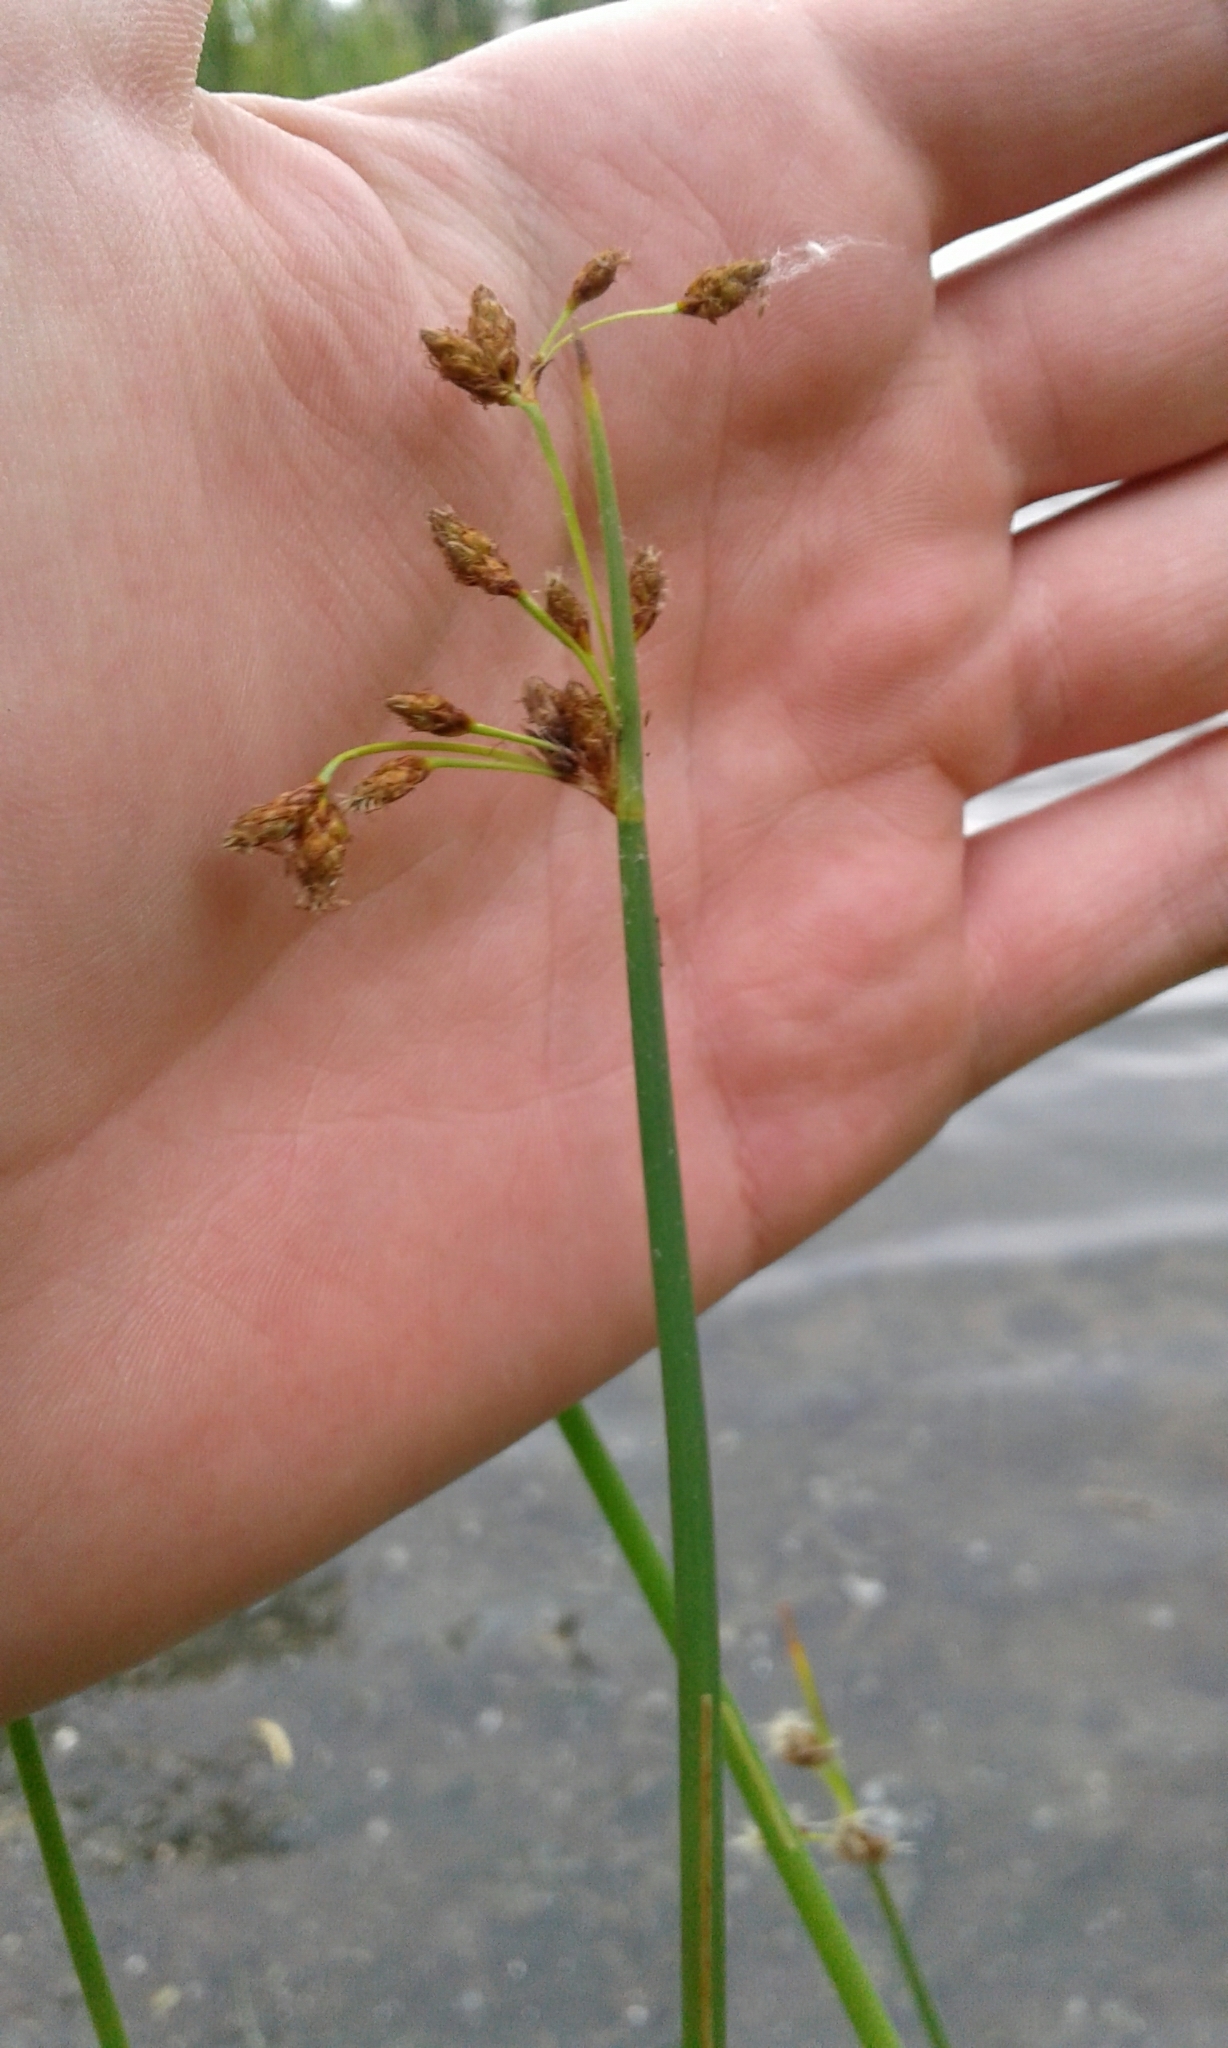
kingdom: Plantae
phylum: Tracheophyta
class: Liliopsida
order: Poales
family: Cyperaceae
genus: Schoenoplectus
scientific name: Schoenoplectus tabernaemontani
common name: Grey club-rush
